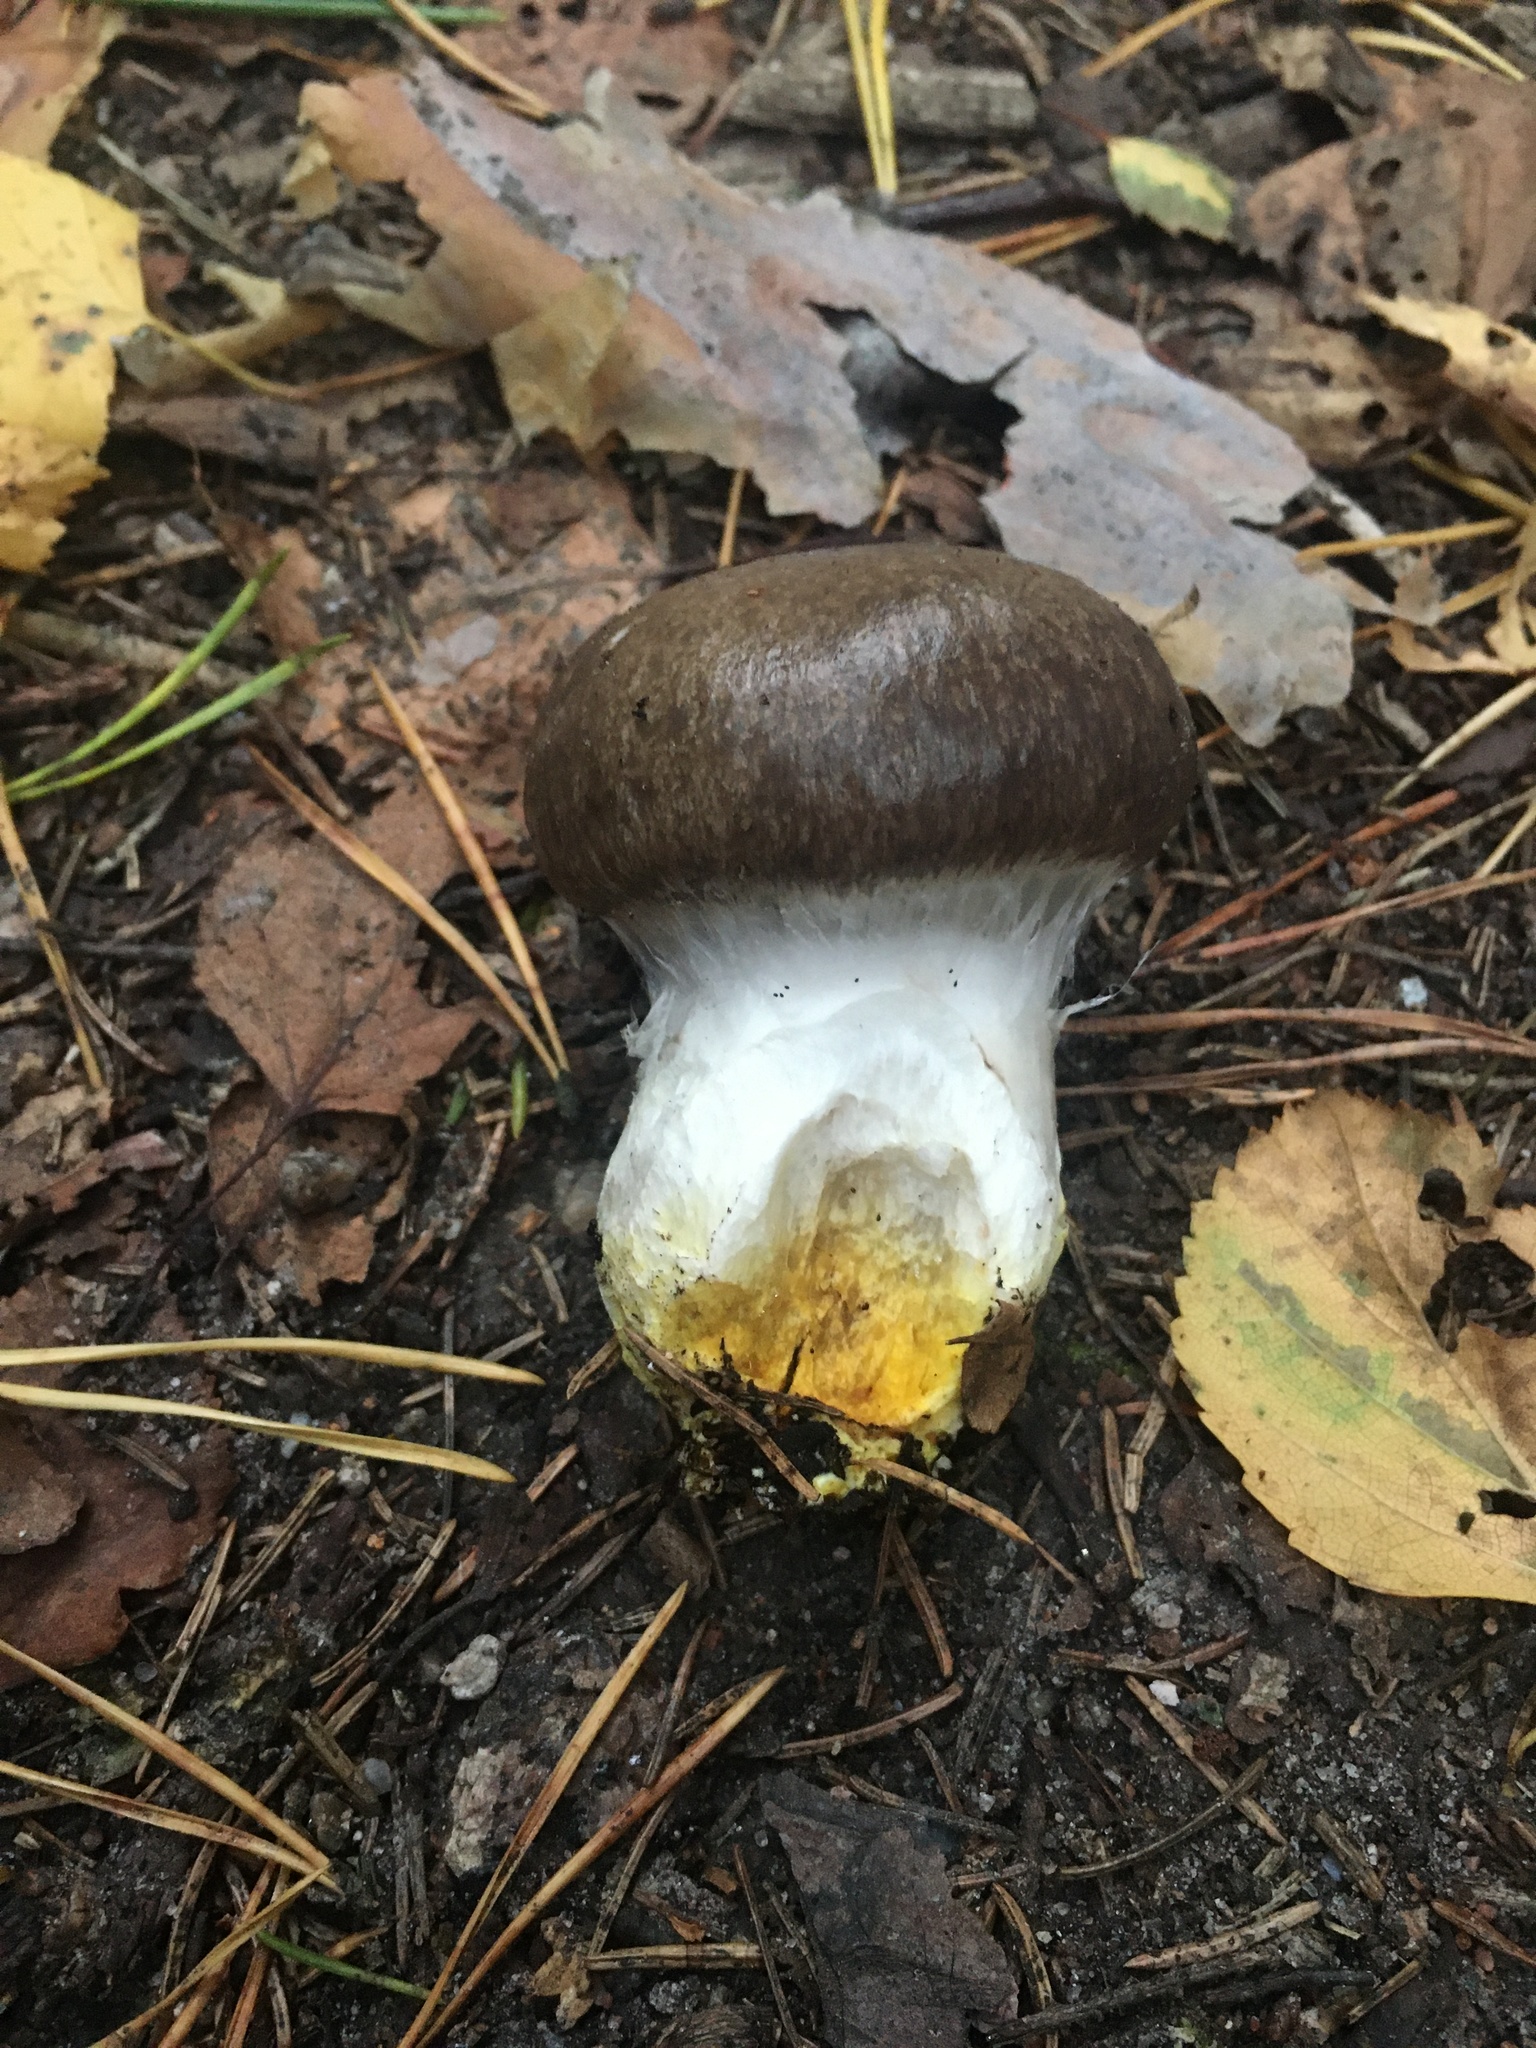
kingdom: Fungi
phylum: Basidiomycota
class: Agaricomycetes
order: Boletales
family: Gomphidiaceae
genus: Gomphidius
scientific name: Gomphidius glutinosus
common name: Slimy spike
